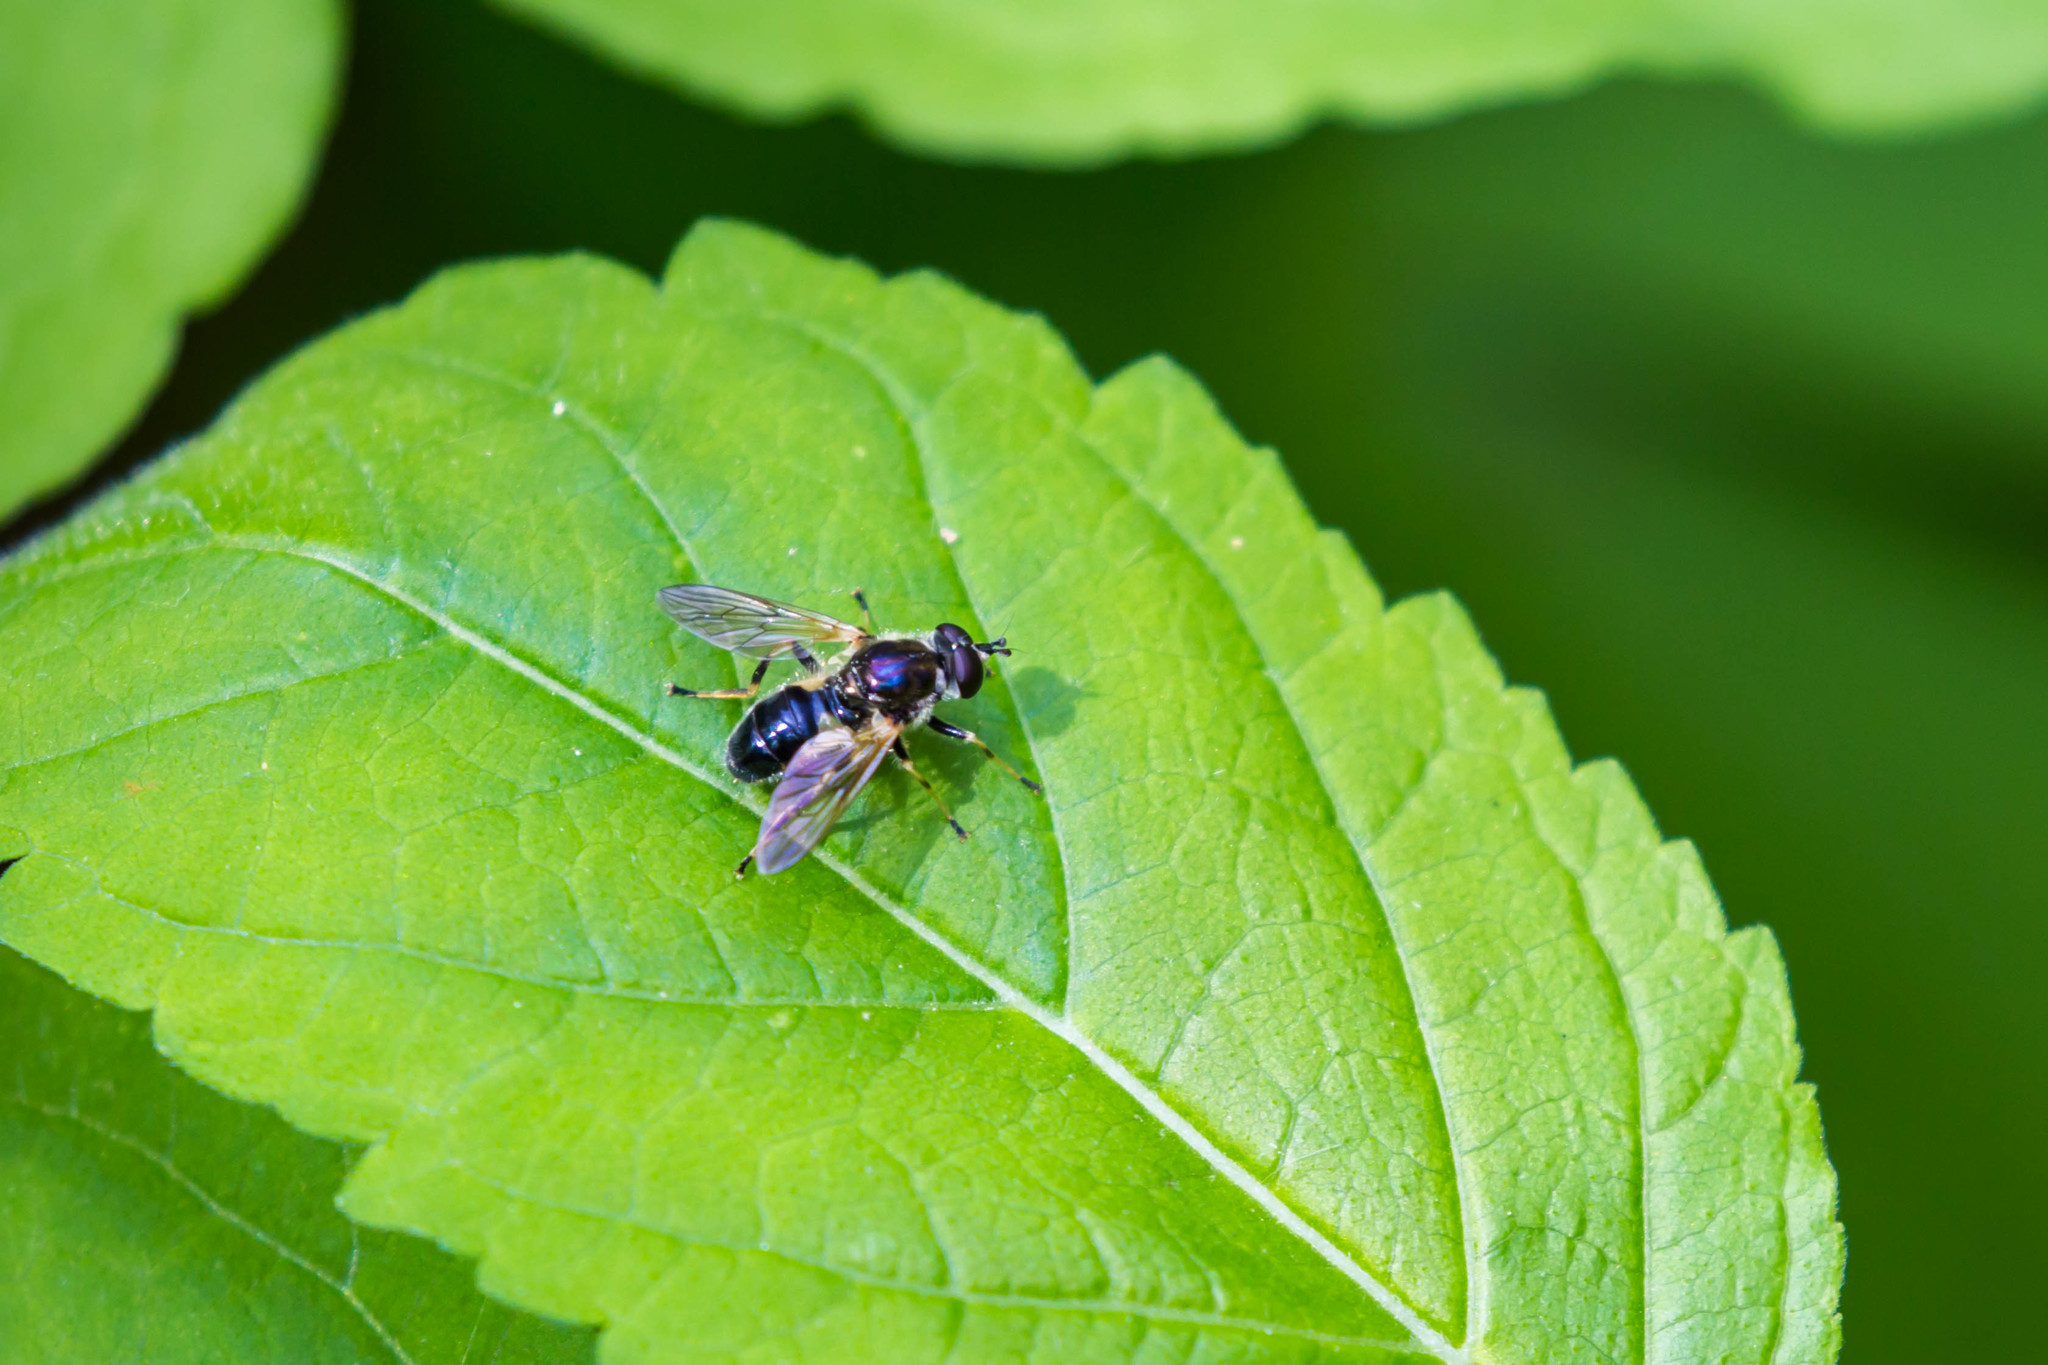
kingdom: Animalia
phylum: Arthropoda
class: Insecta
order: Diptera
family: Syrphidae
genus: Blera
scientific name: Blera badia
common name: Common wood fly
